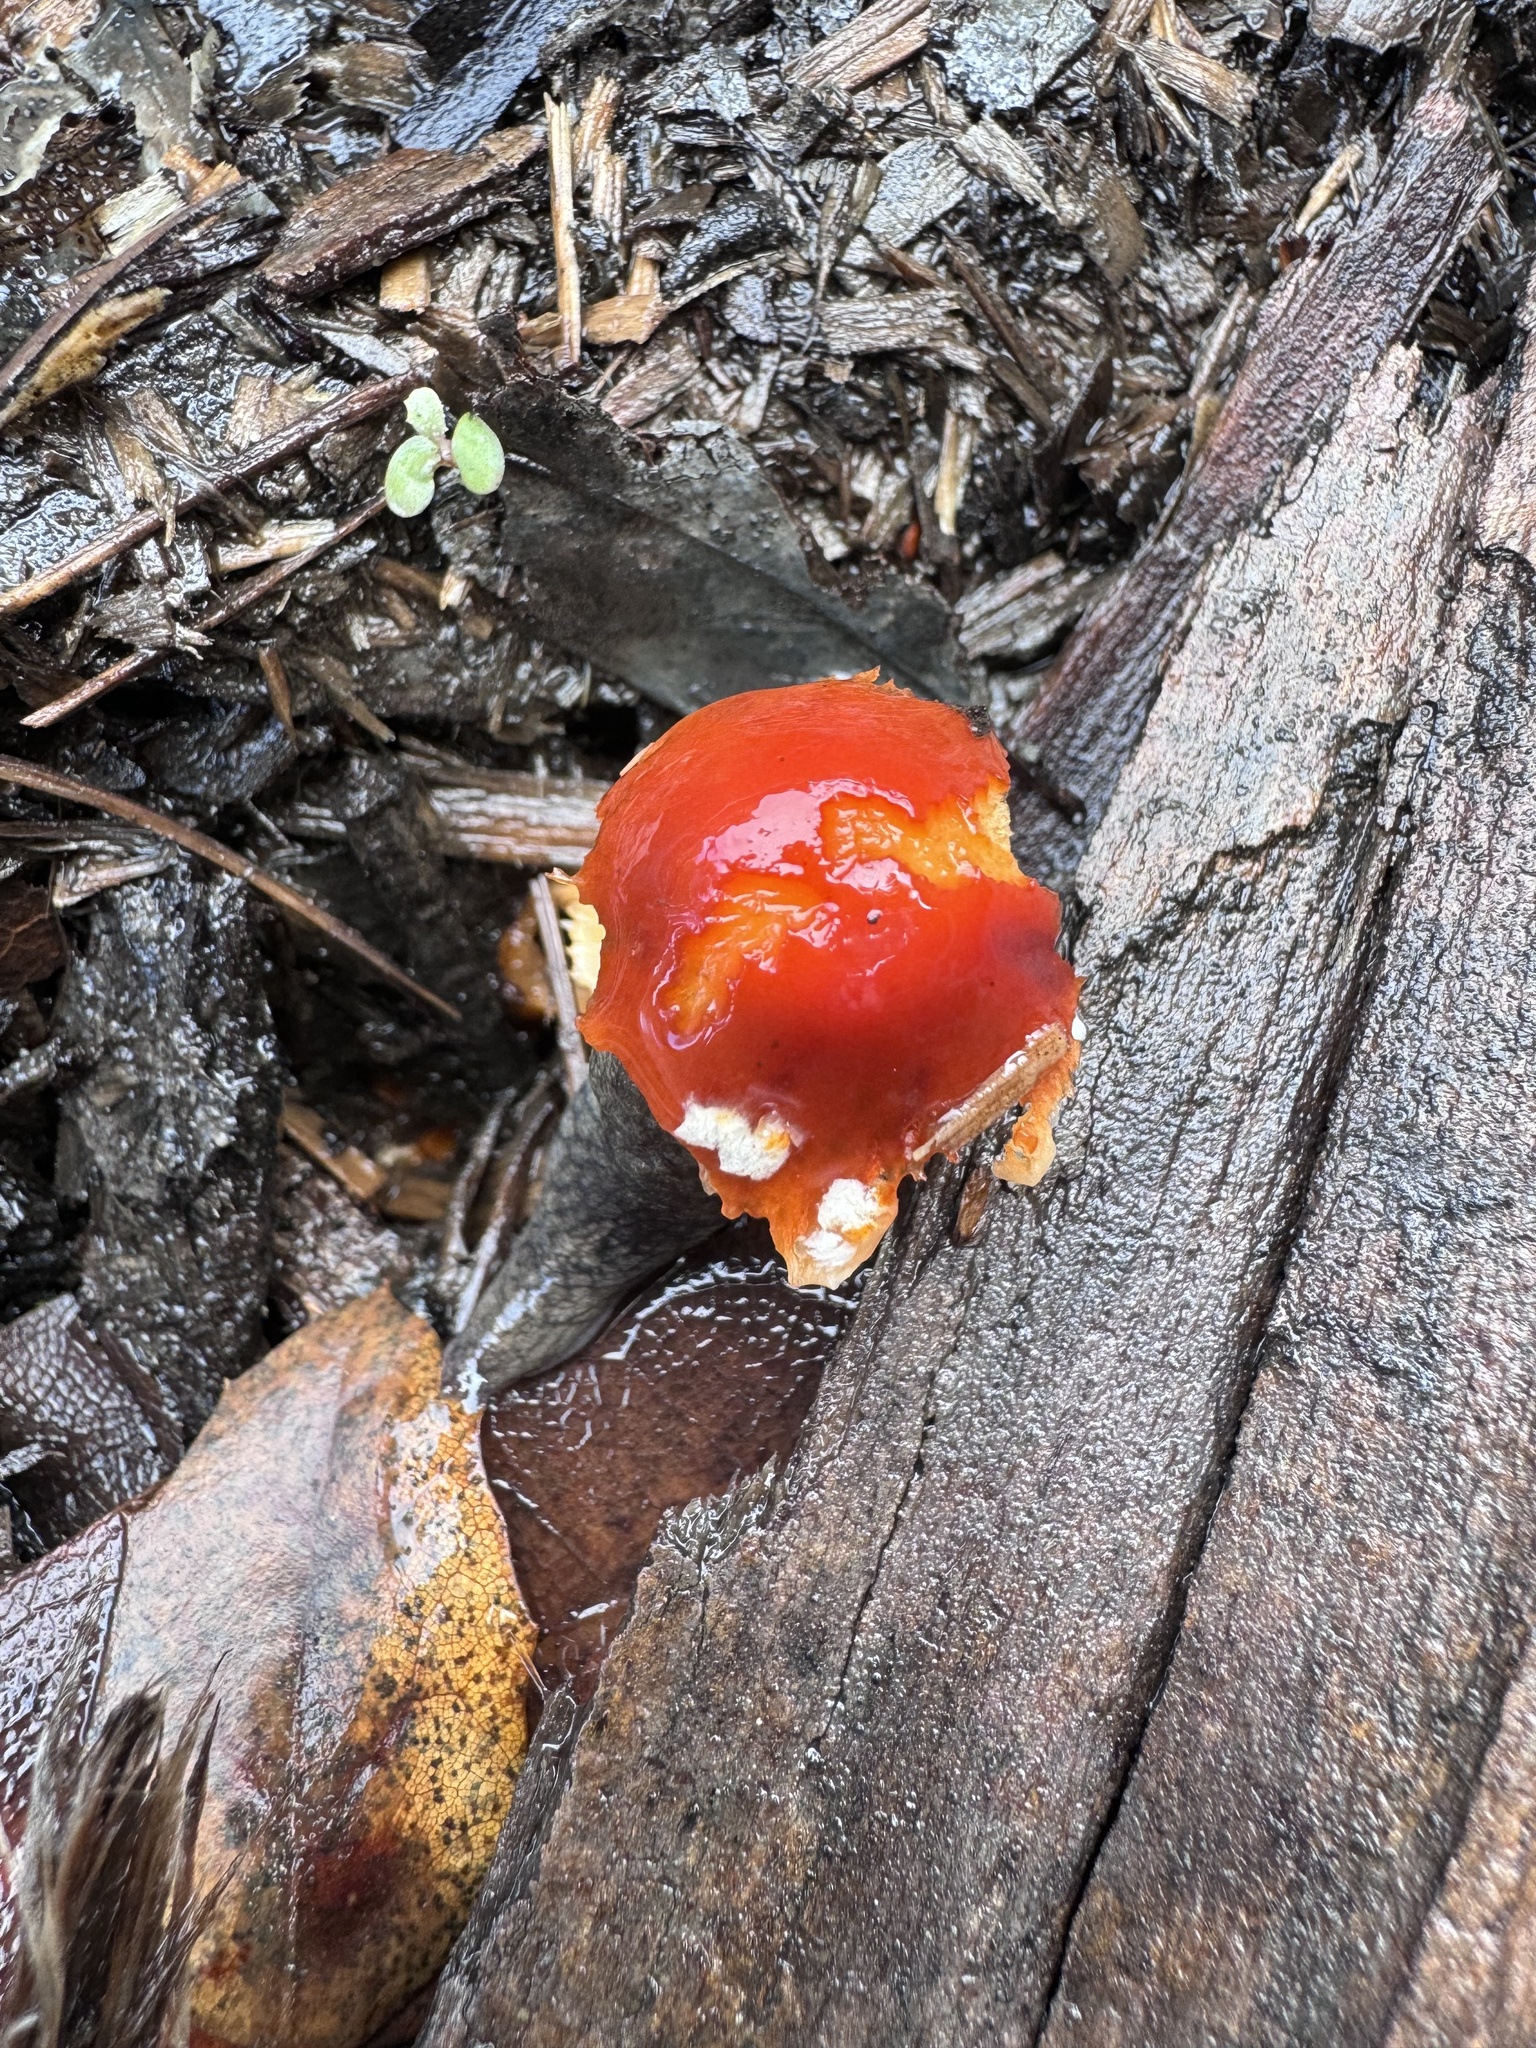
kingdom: Fungi
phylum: Basidiomycota
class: Agaricomycetes
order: Agaricales
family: Strophariaceae
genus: Leratiomyces
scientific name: Leratiomyces ceres
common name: Redlead roundhead
